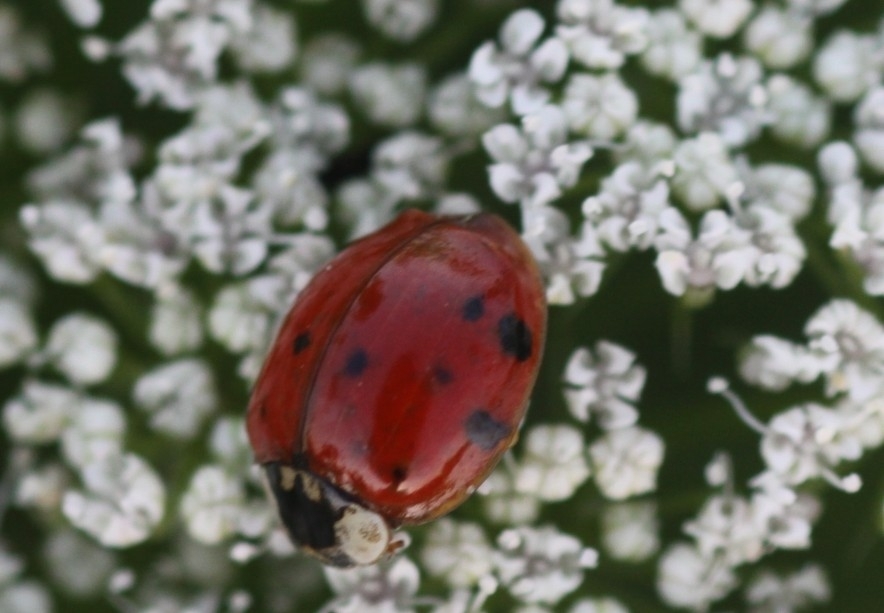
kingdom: Animalia
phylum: Arthropoda
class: Insecta
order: Coleoptera
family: Coccinellidae
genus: Harmonia
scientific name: Harmonia axyridis
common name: Harlequin ladybird
